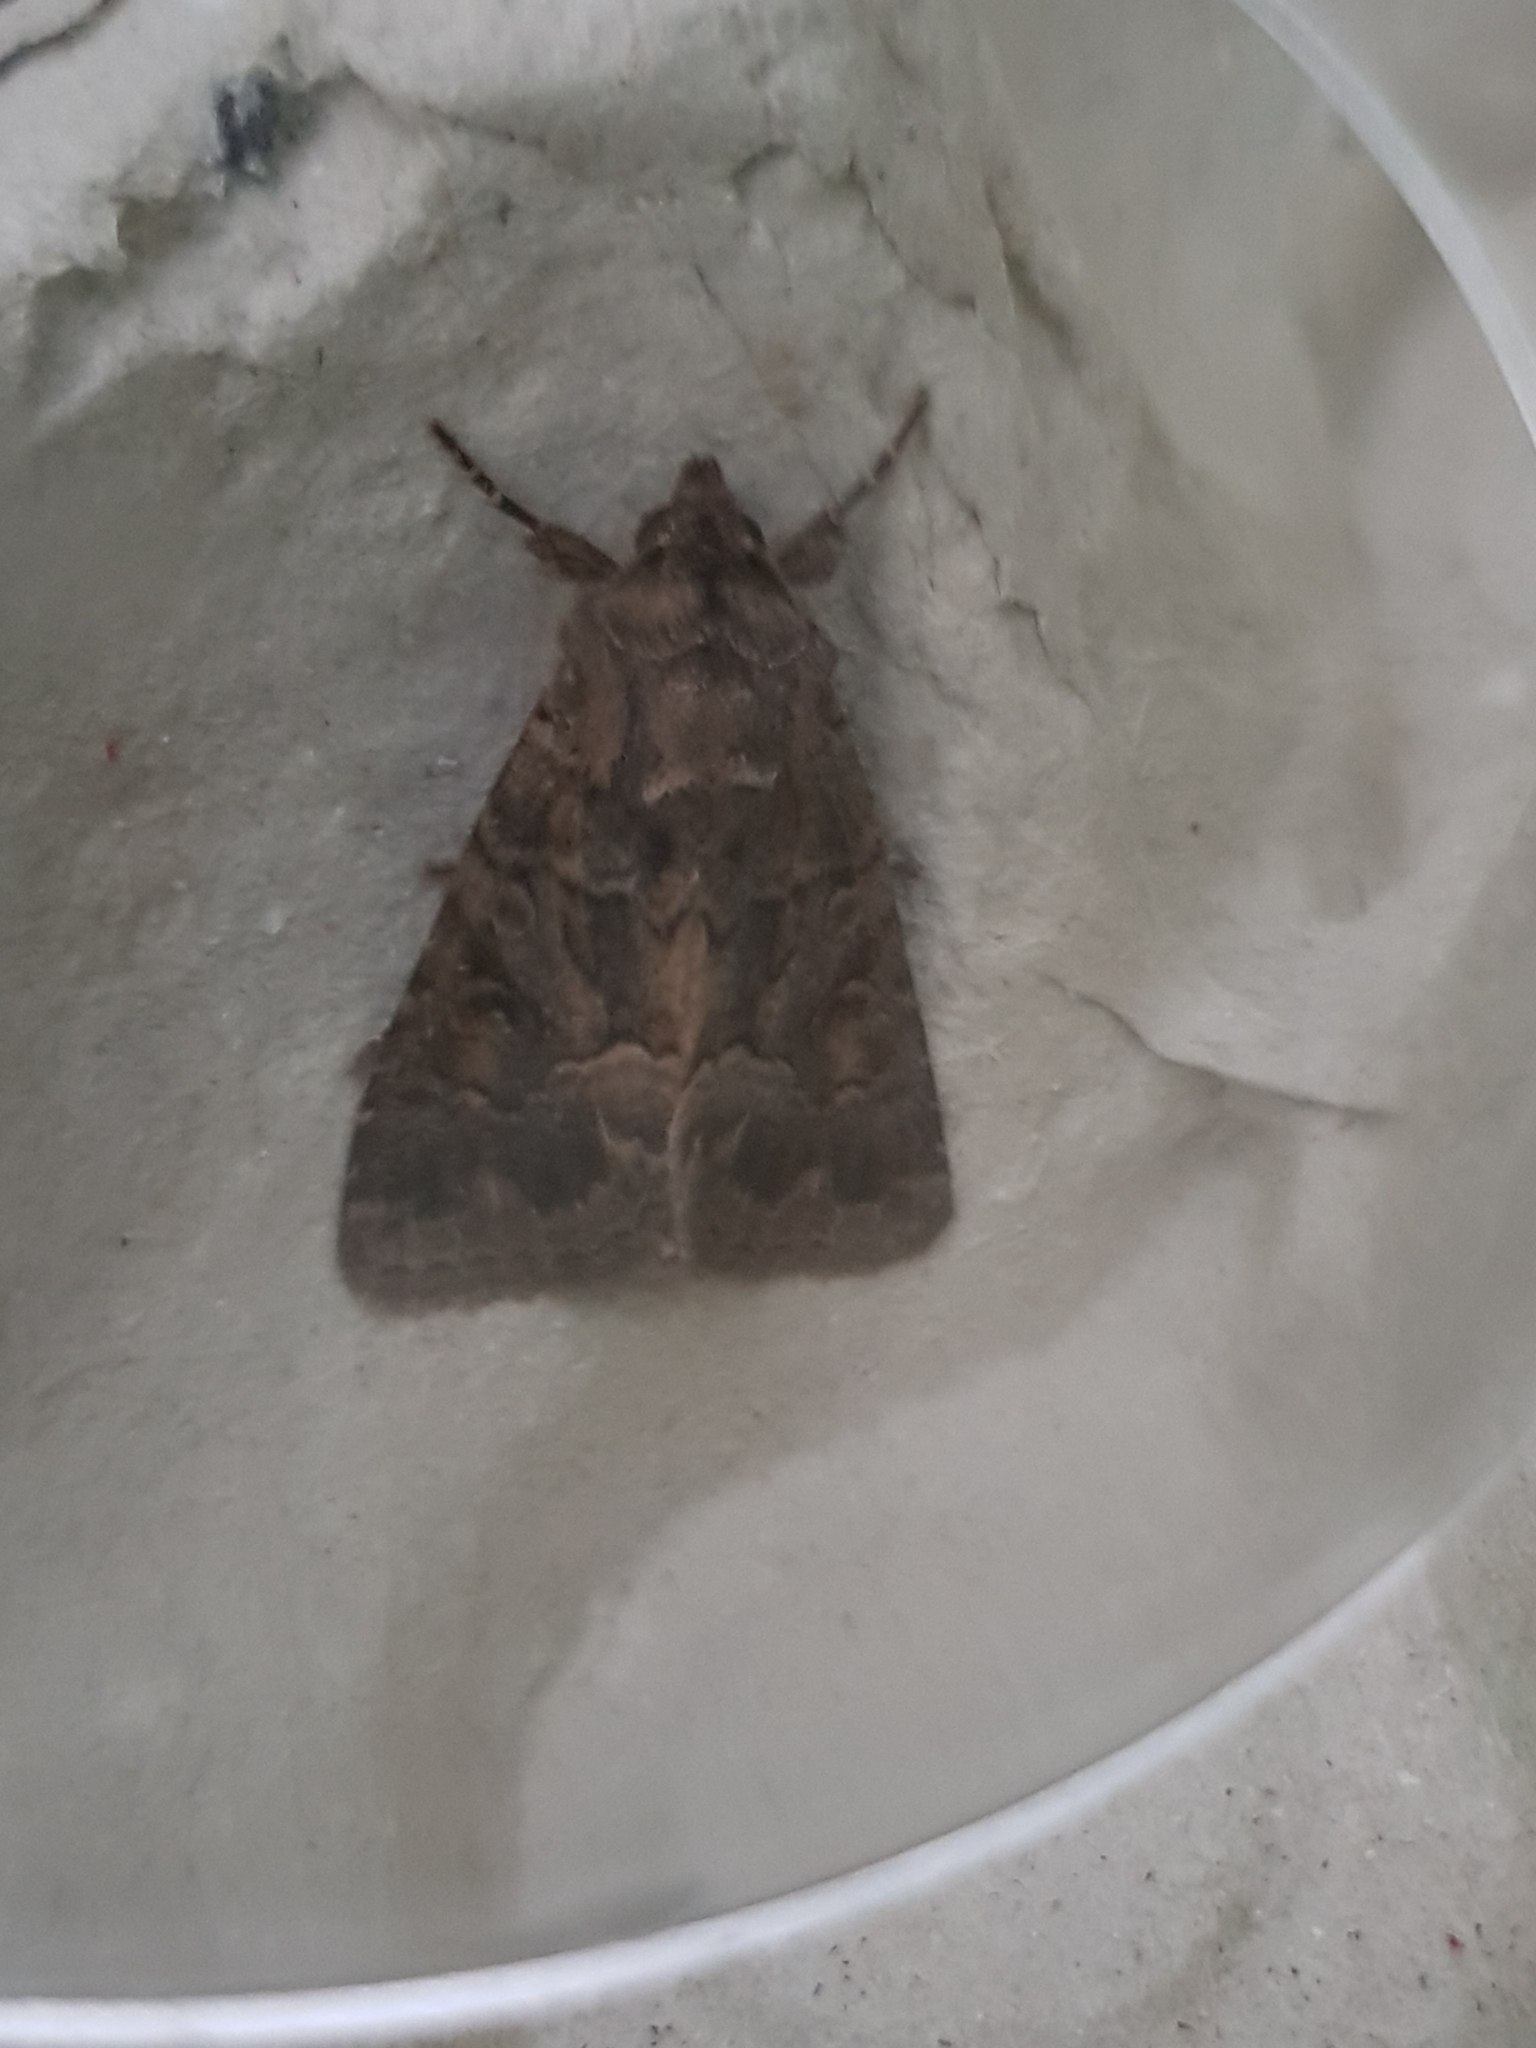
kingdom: Animalia
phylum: Arthropoda
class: Insecta
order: Lepidoptera
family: Noctuidae
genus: Thalpophila
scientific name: Thalpophila matura
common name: Straw underwing
